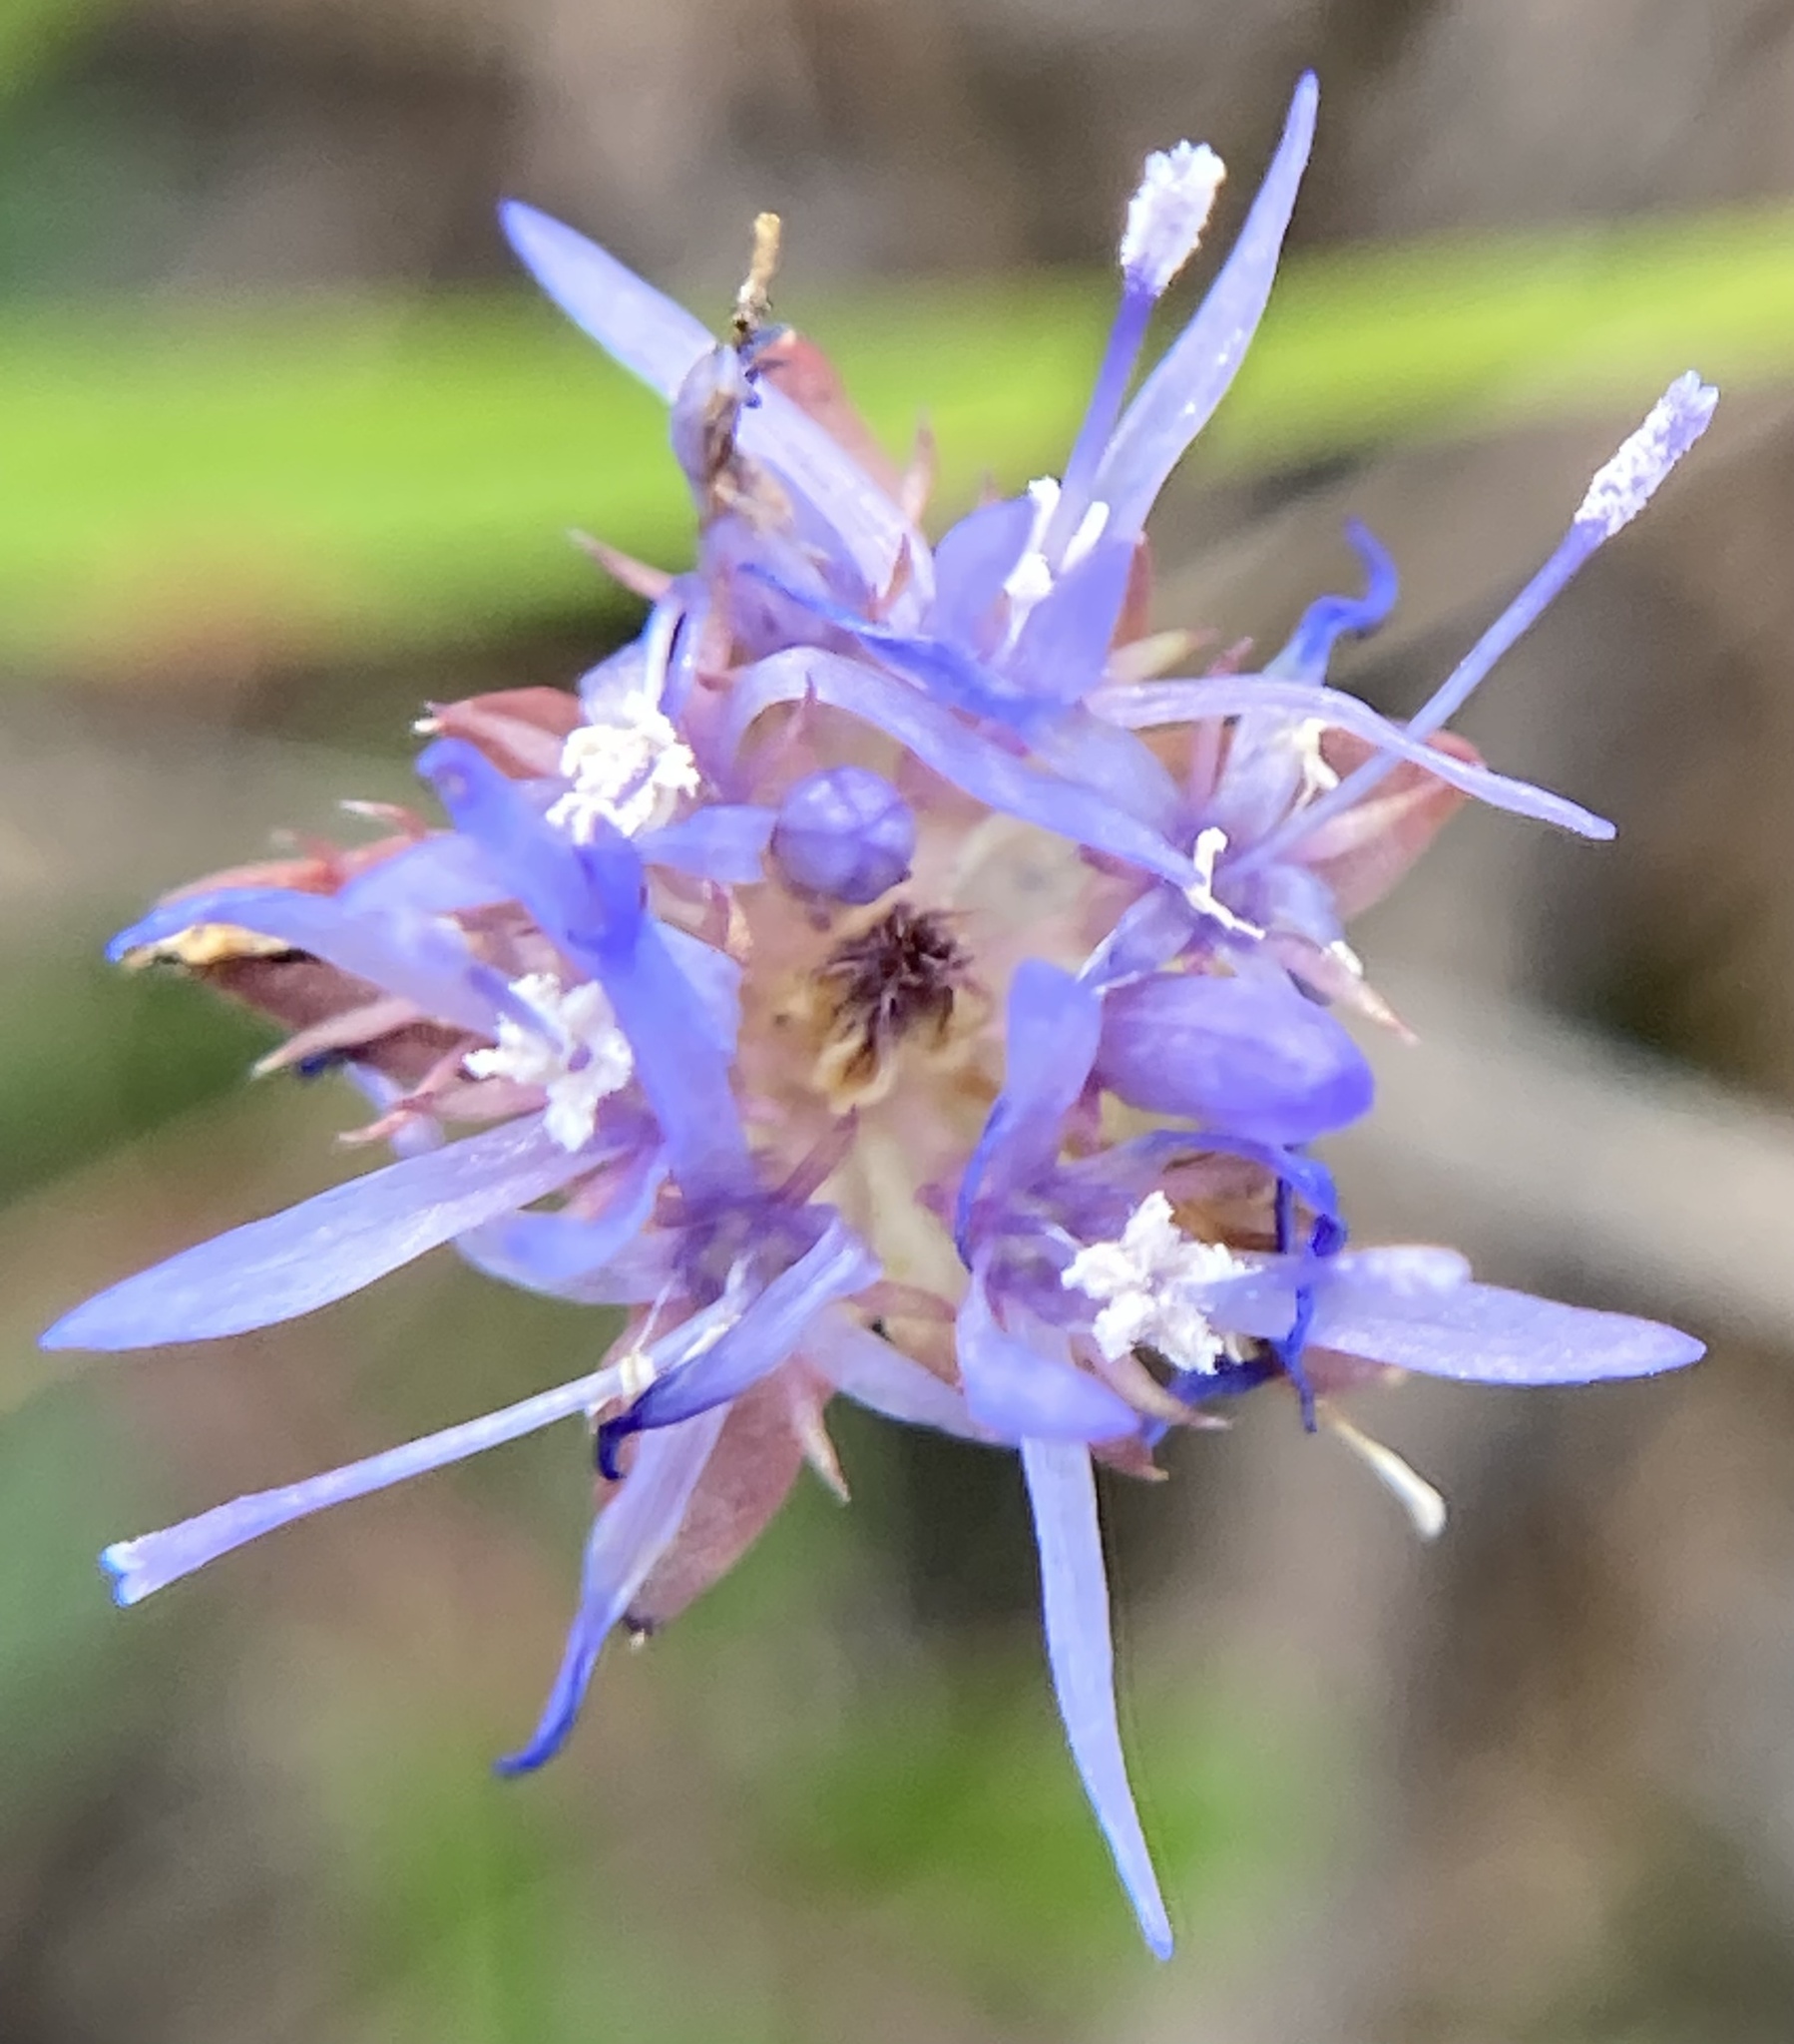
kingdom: Plantae
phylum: Tracheophyta
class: Magnoliopsida
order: Asterales
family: Campanulaceae
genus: Jasione
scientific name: Jasione montana
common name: Sheep's-bit
